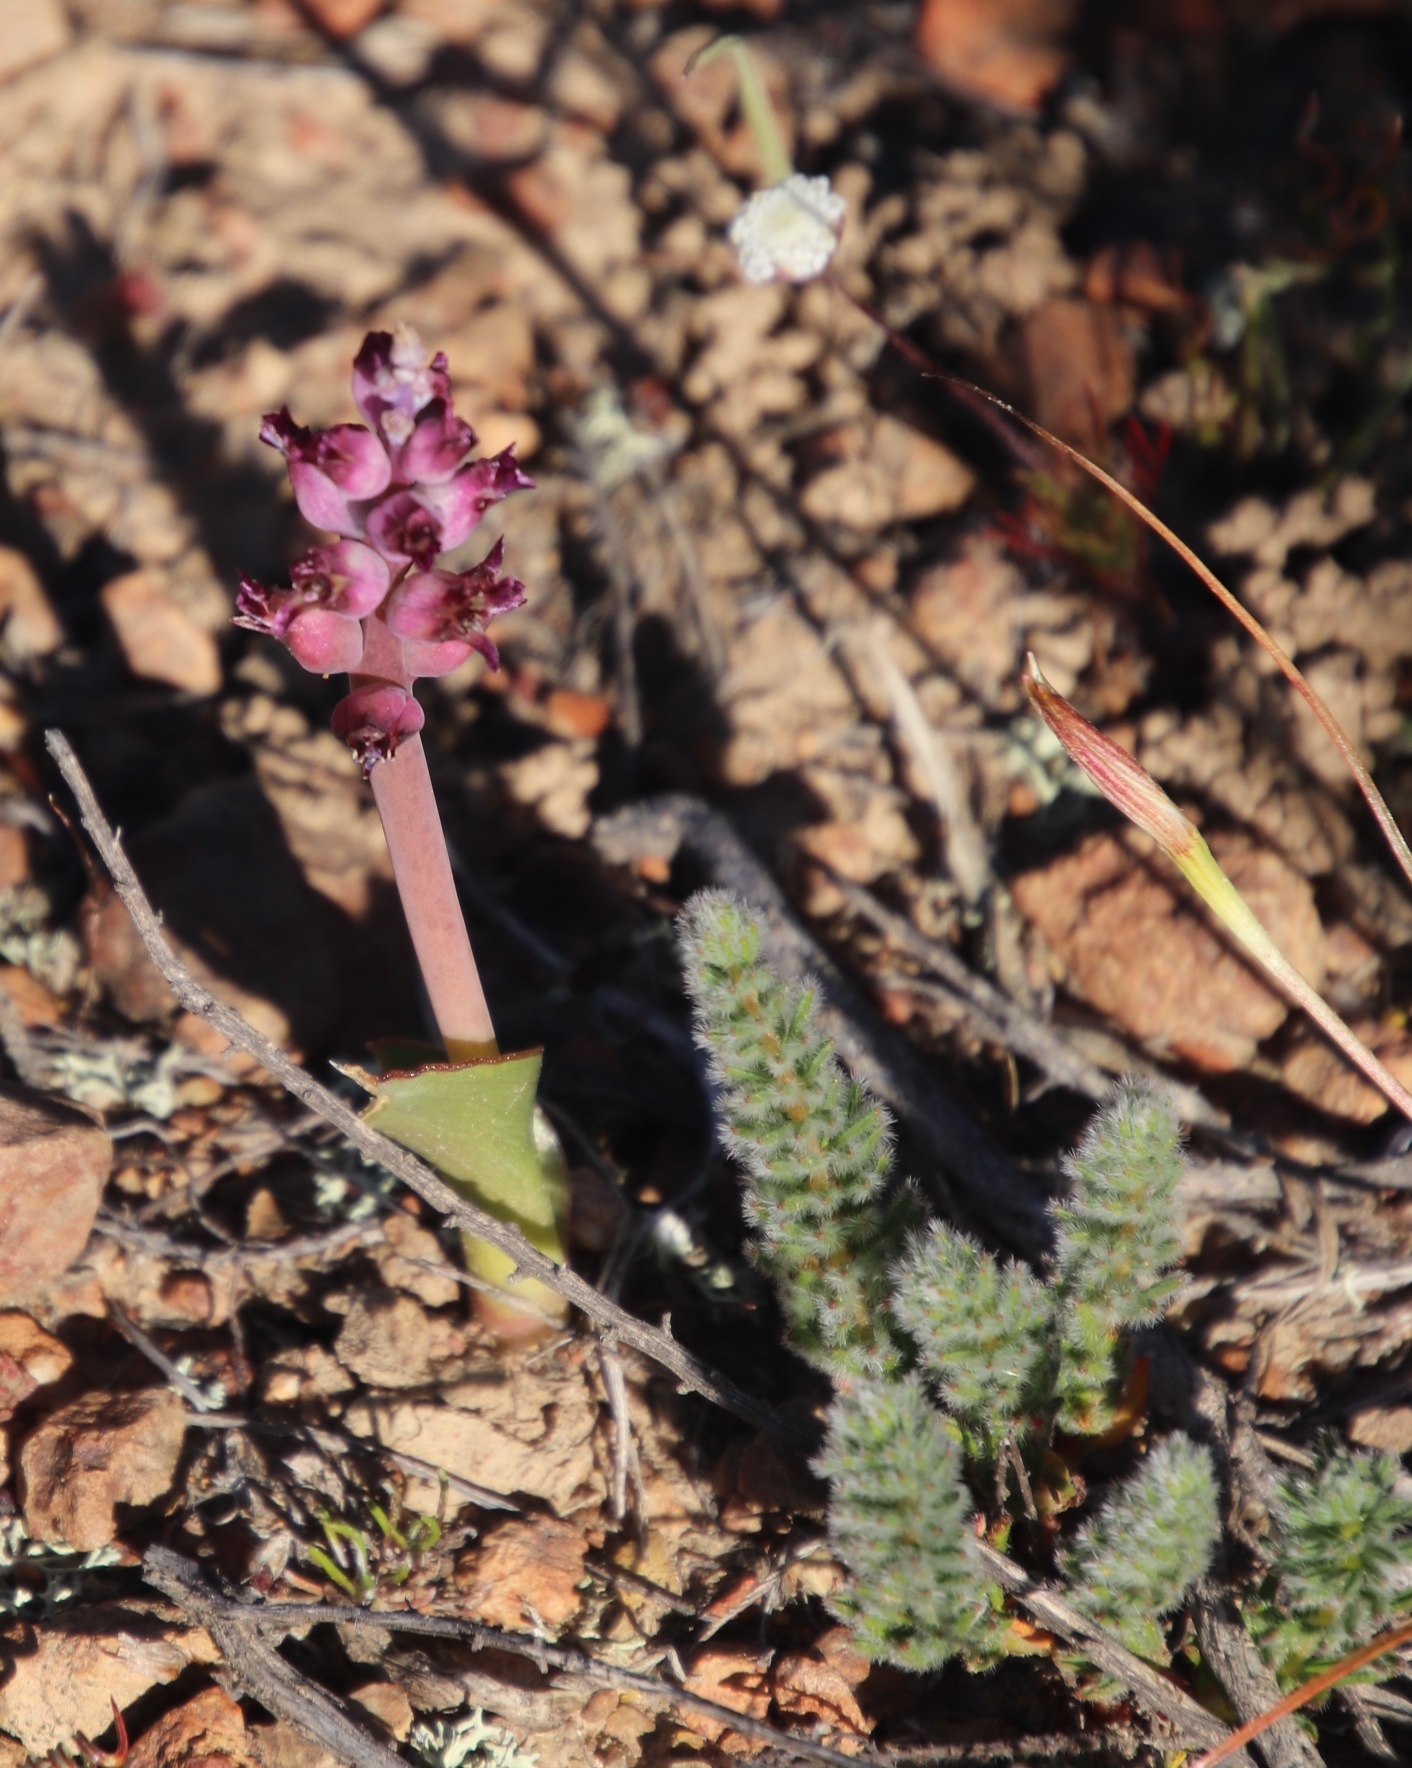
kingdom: Plantae
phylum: Tracheophyta
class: Liliopsida
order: Asparagales
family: Asparagaceae
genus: Lachenalia
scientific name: Lachenalia elegans
